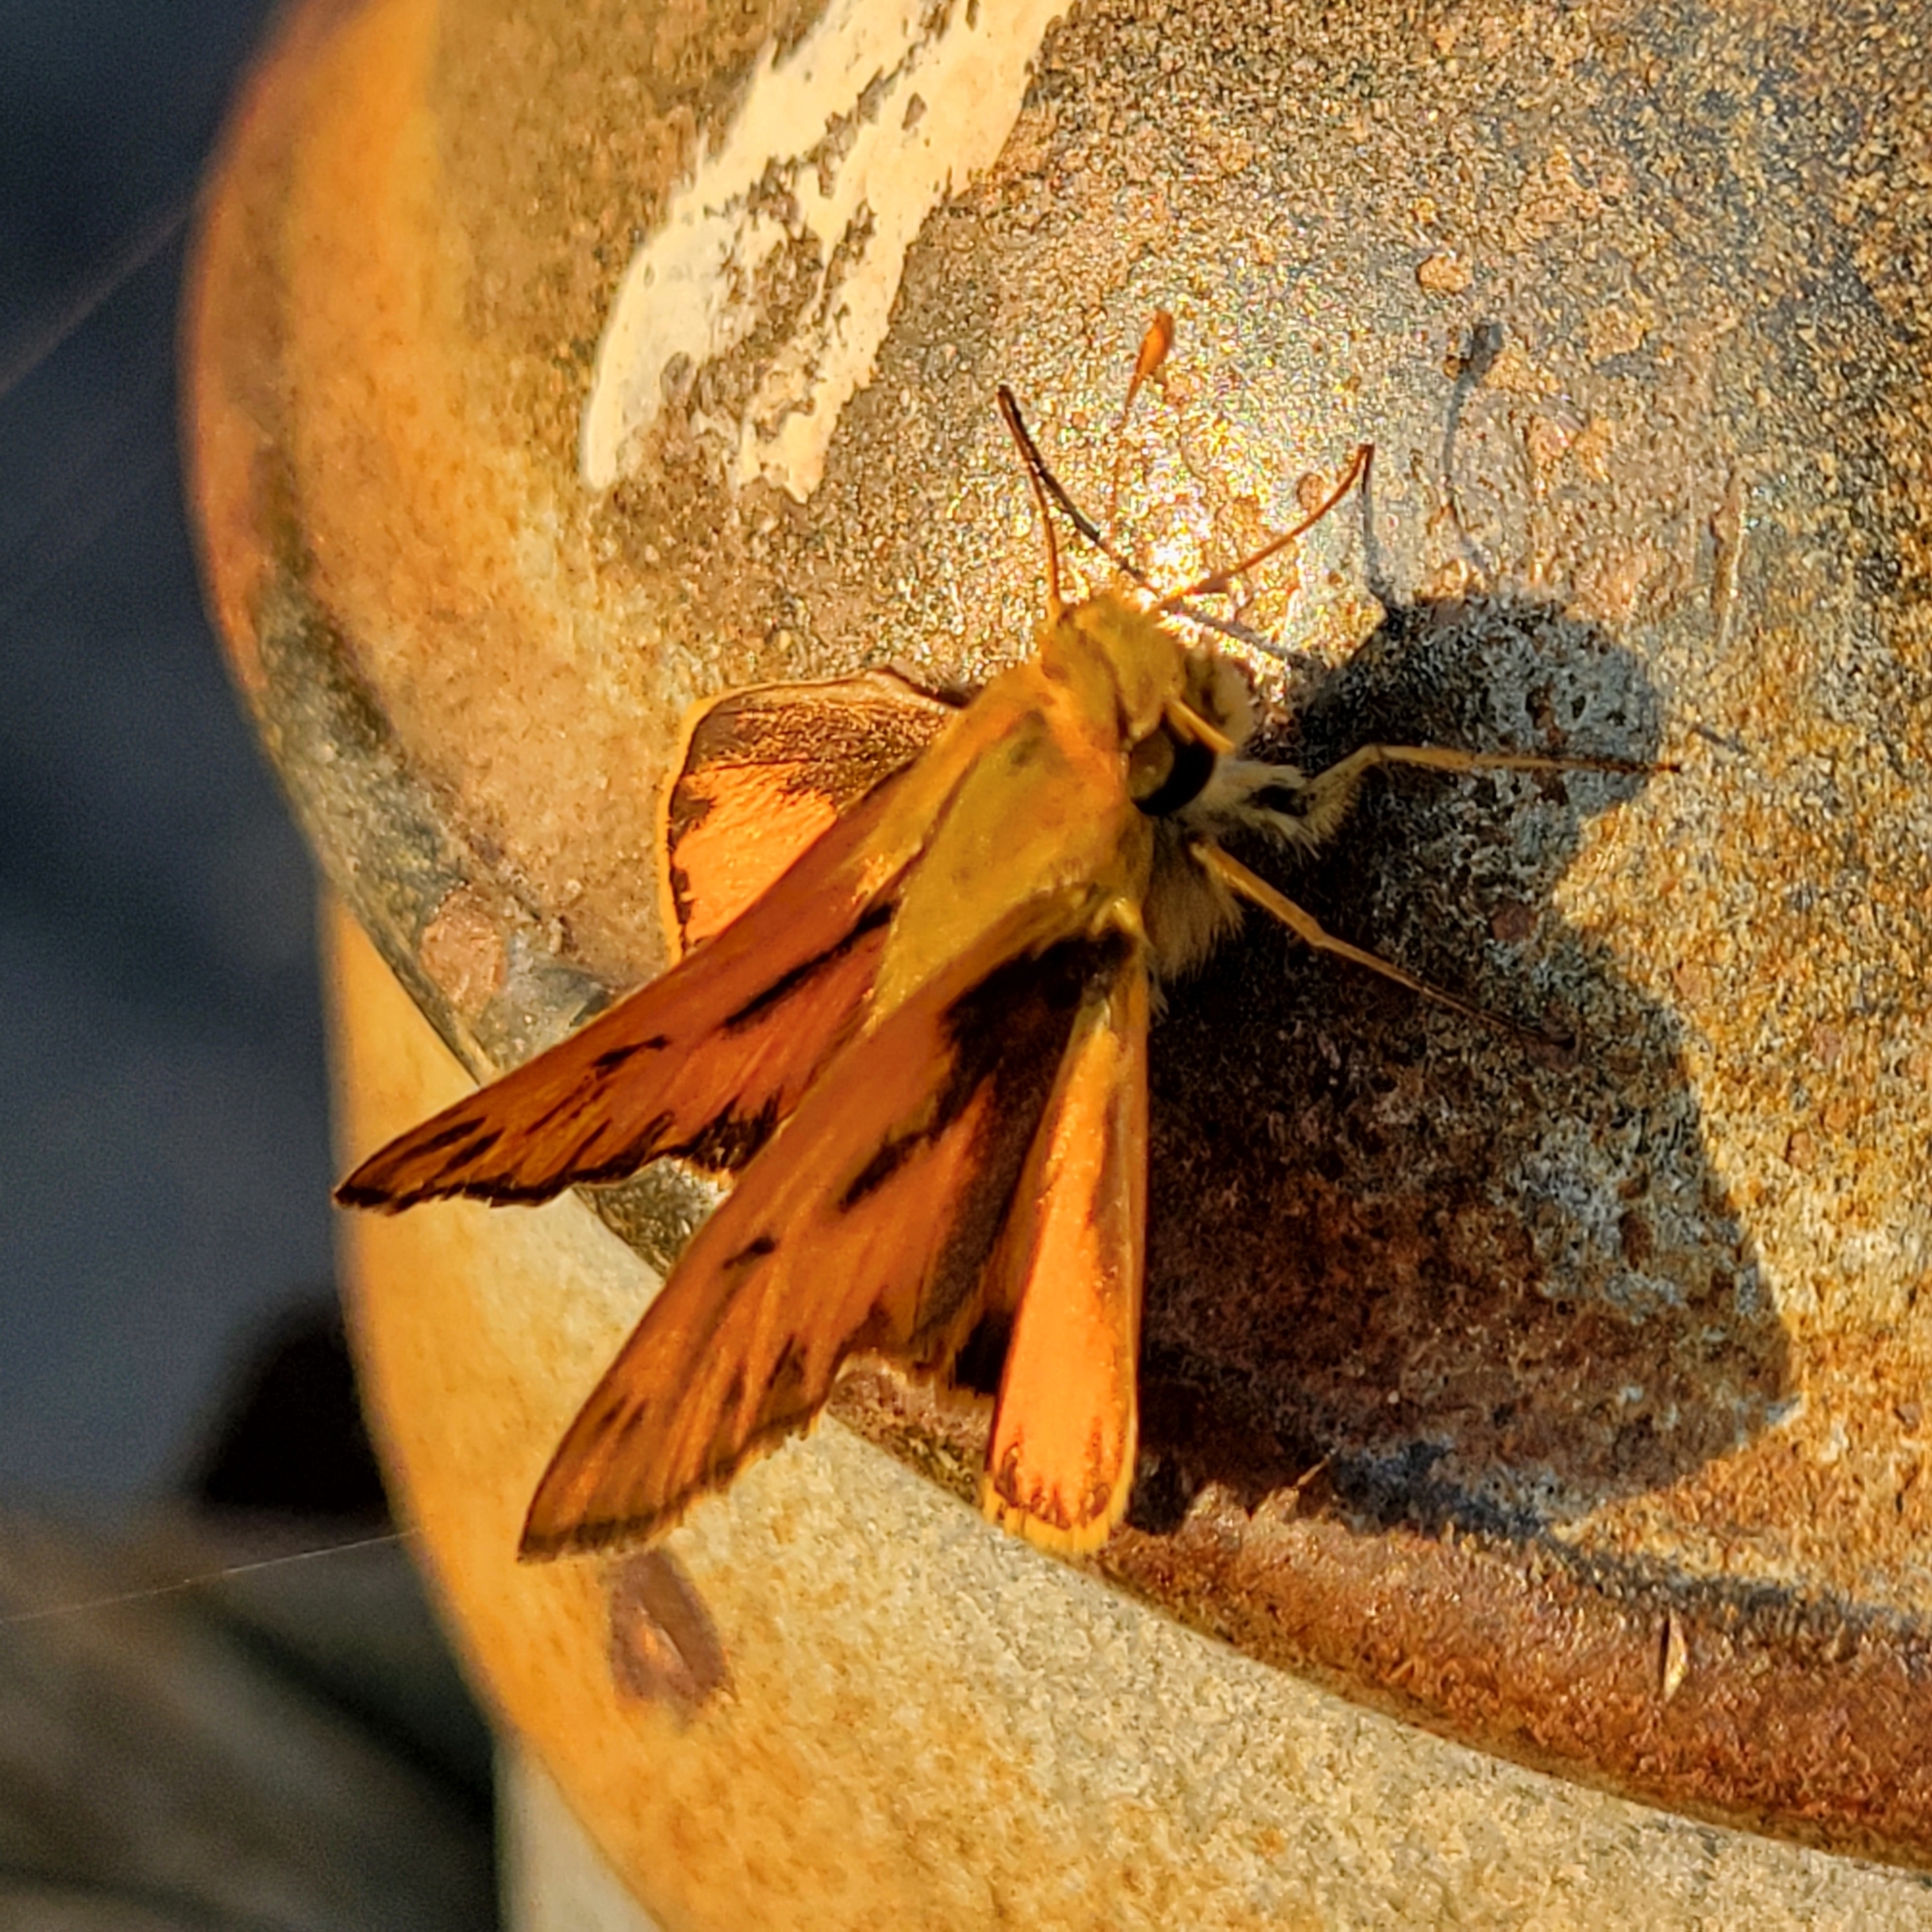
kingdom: Animalia
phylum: Arthropoda
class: Insecta
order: Lepidoptera
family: Hesperiidae
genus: Hylephila
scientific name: Hylephila phyleus
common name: Fiery skipper
